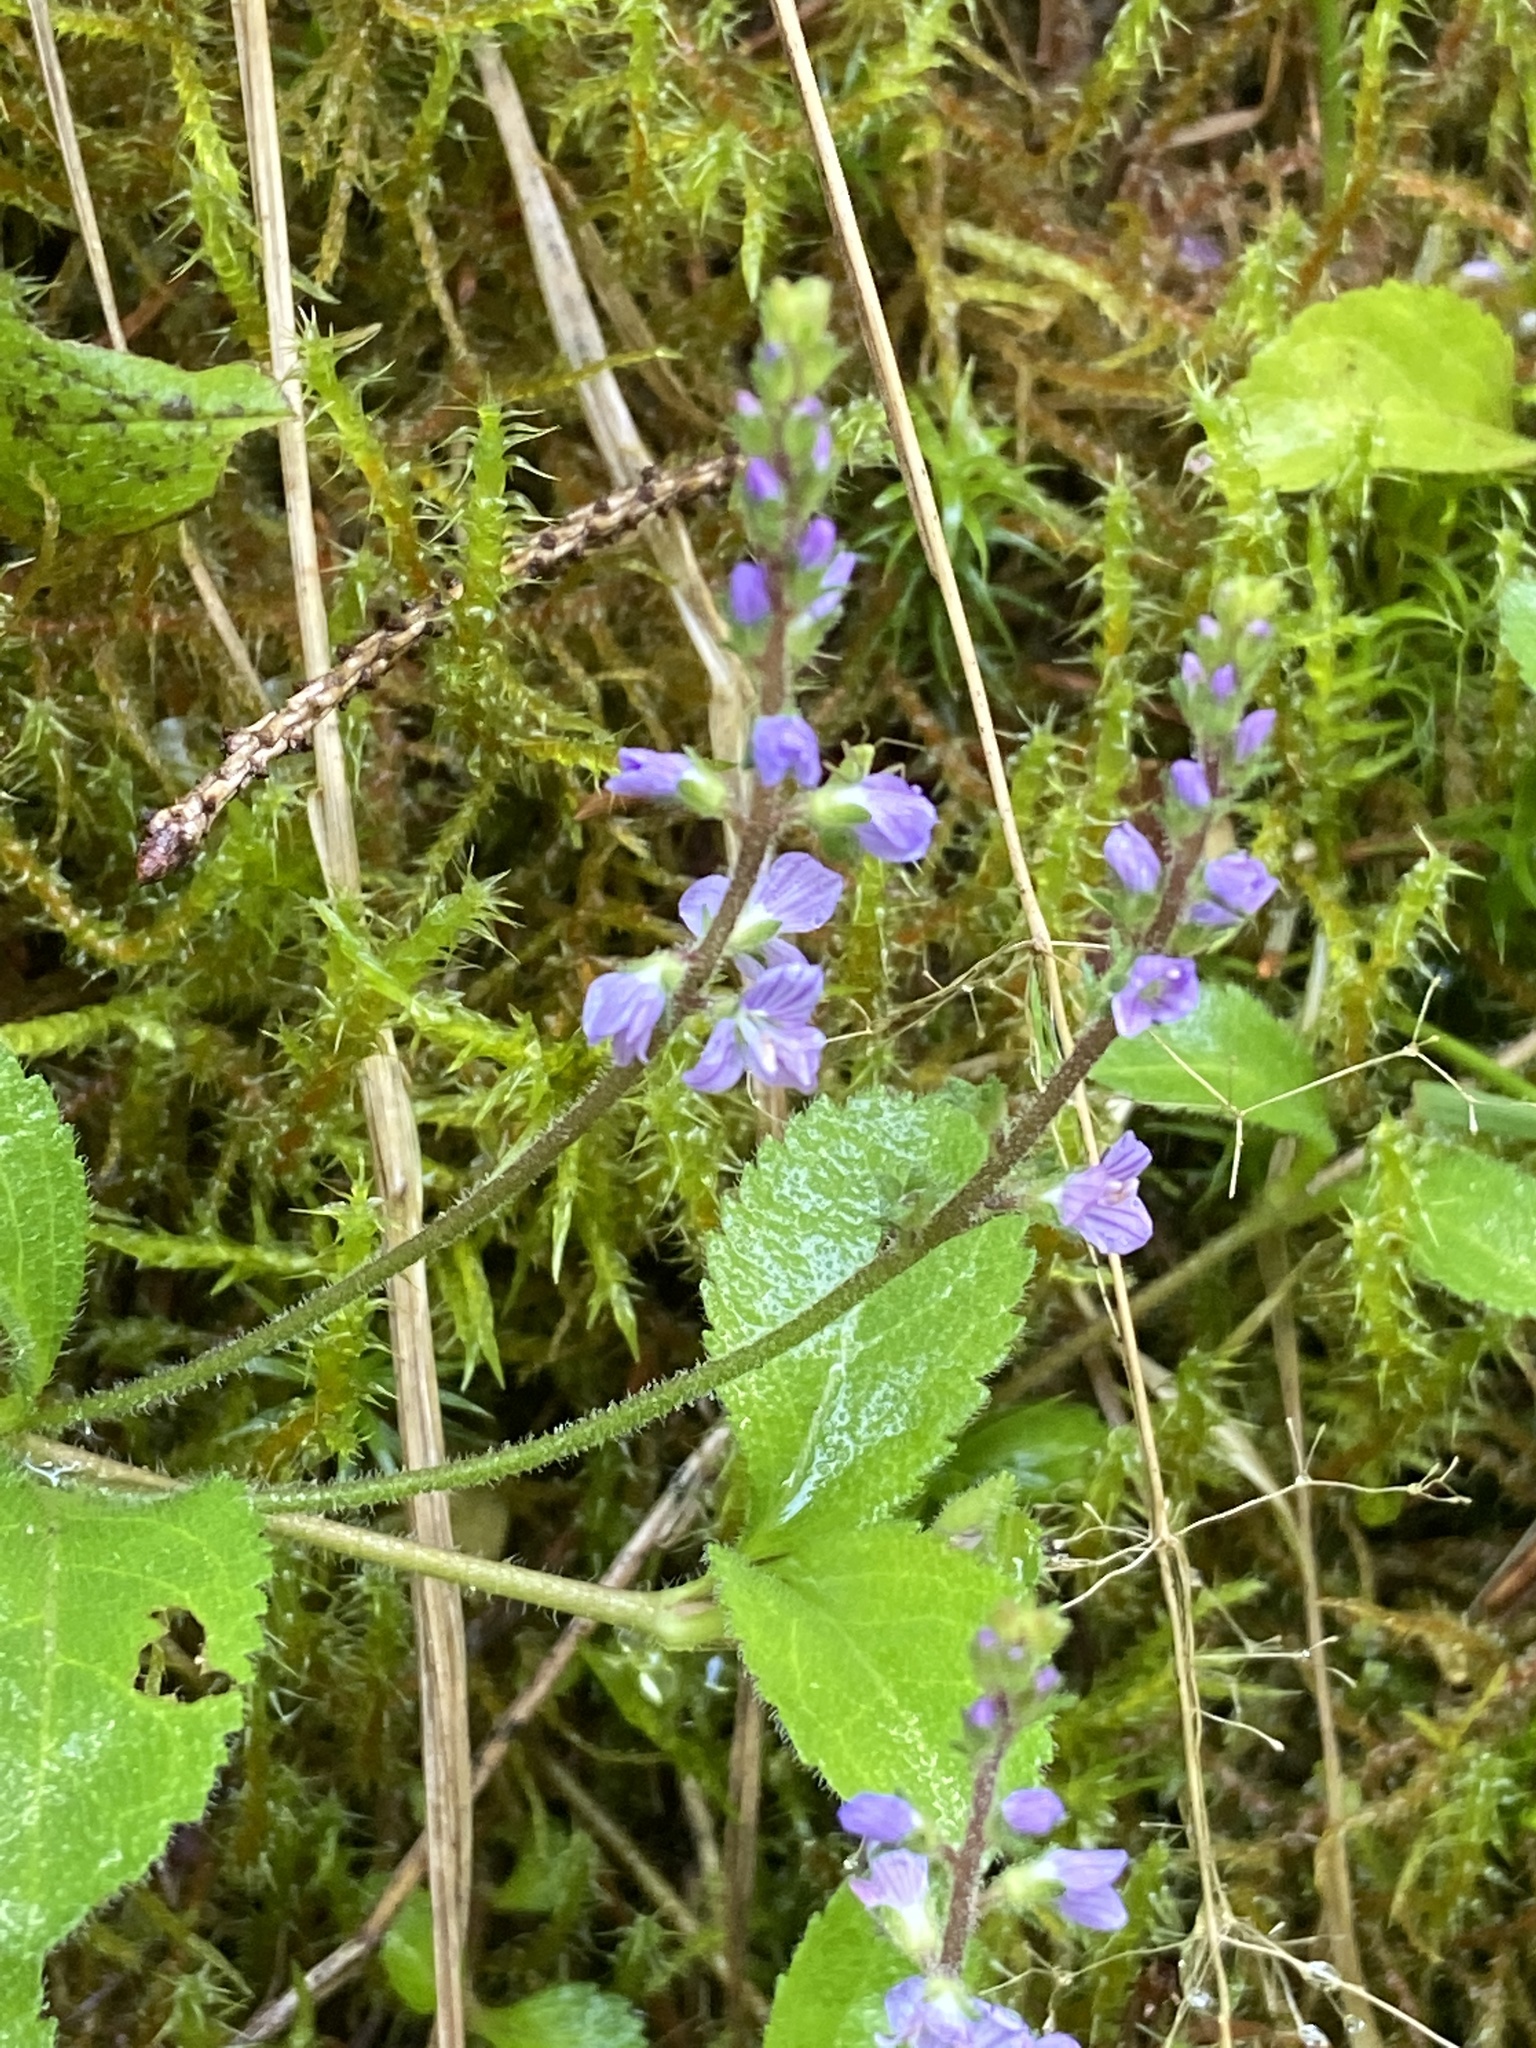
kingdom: Plantae
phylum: Tracheophyta
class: Magnoliopsida
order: Lamiales
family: Plantaginaceae
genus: Veronica
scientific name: Veronica officinalis
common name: Common speedwell
